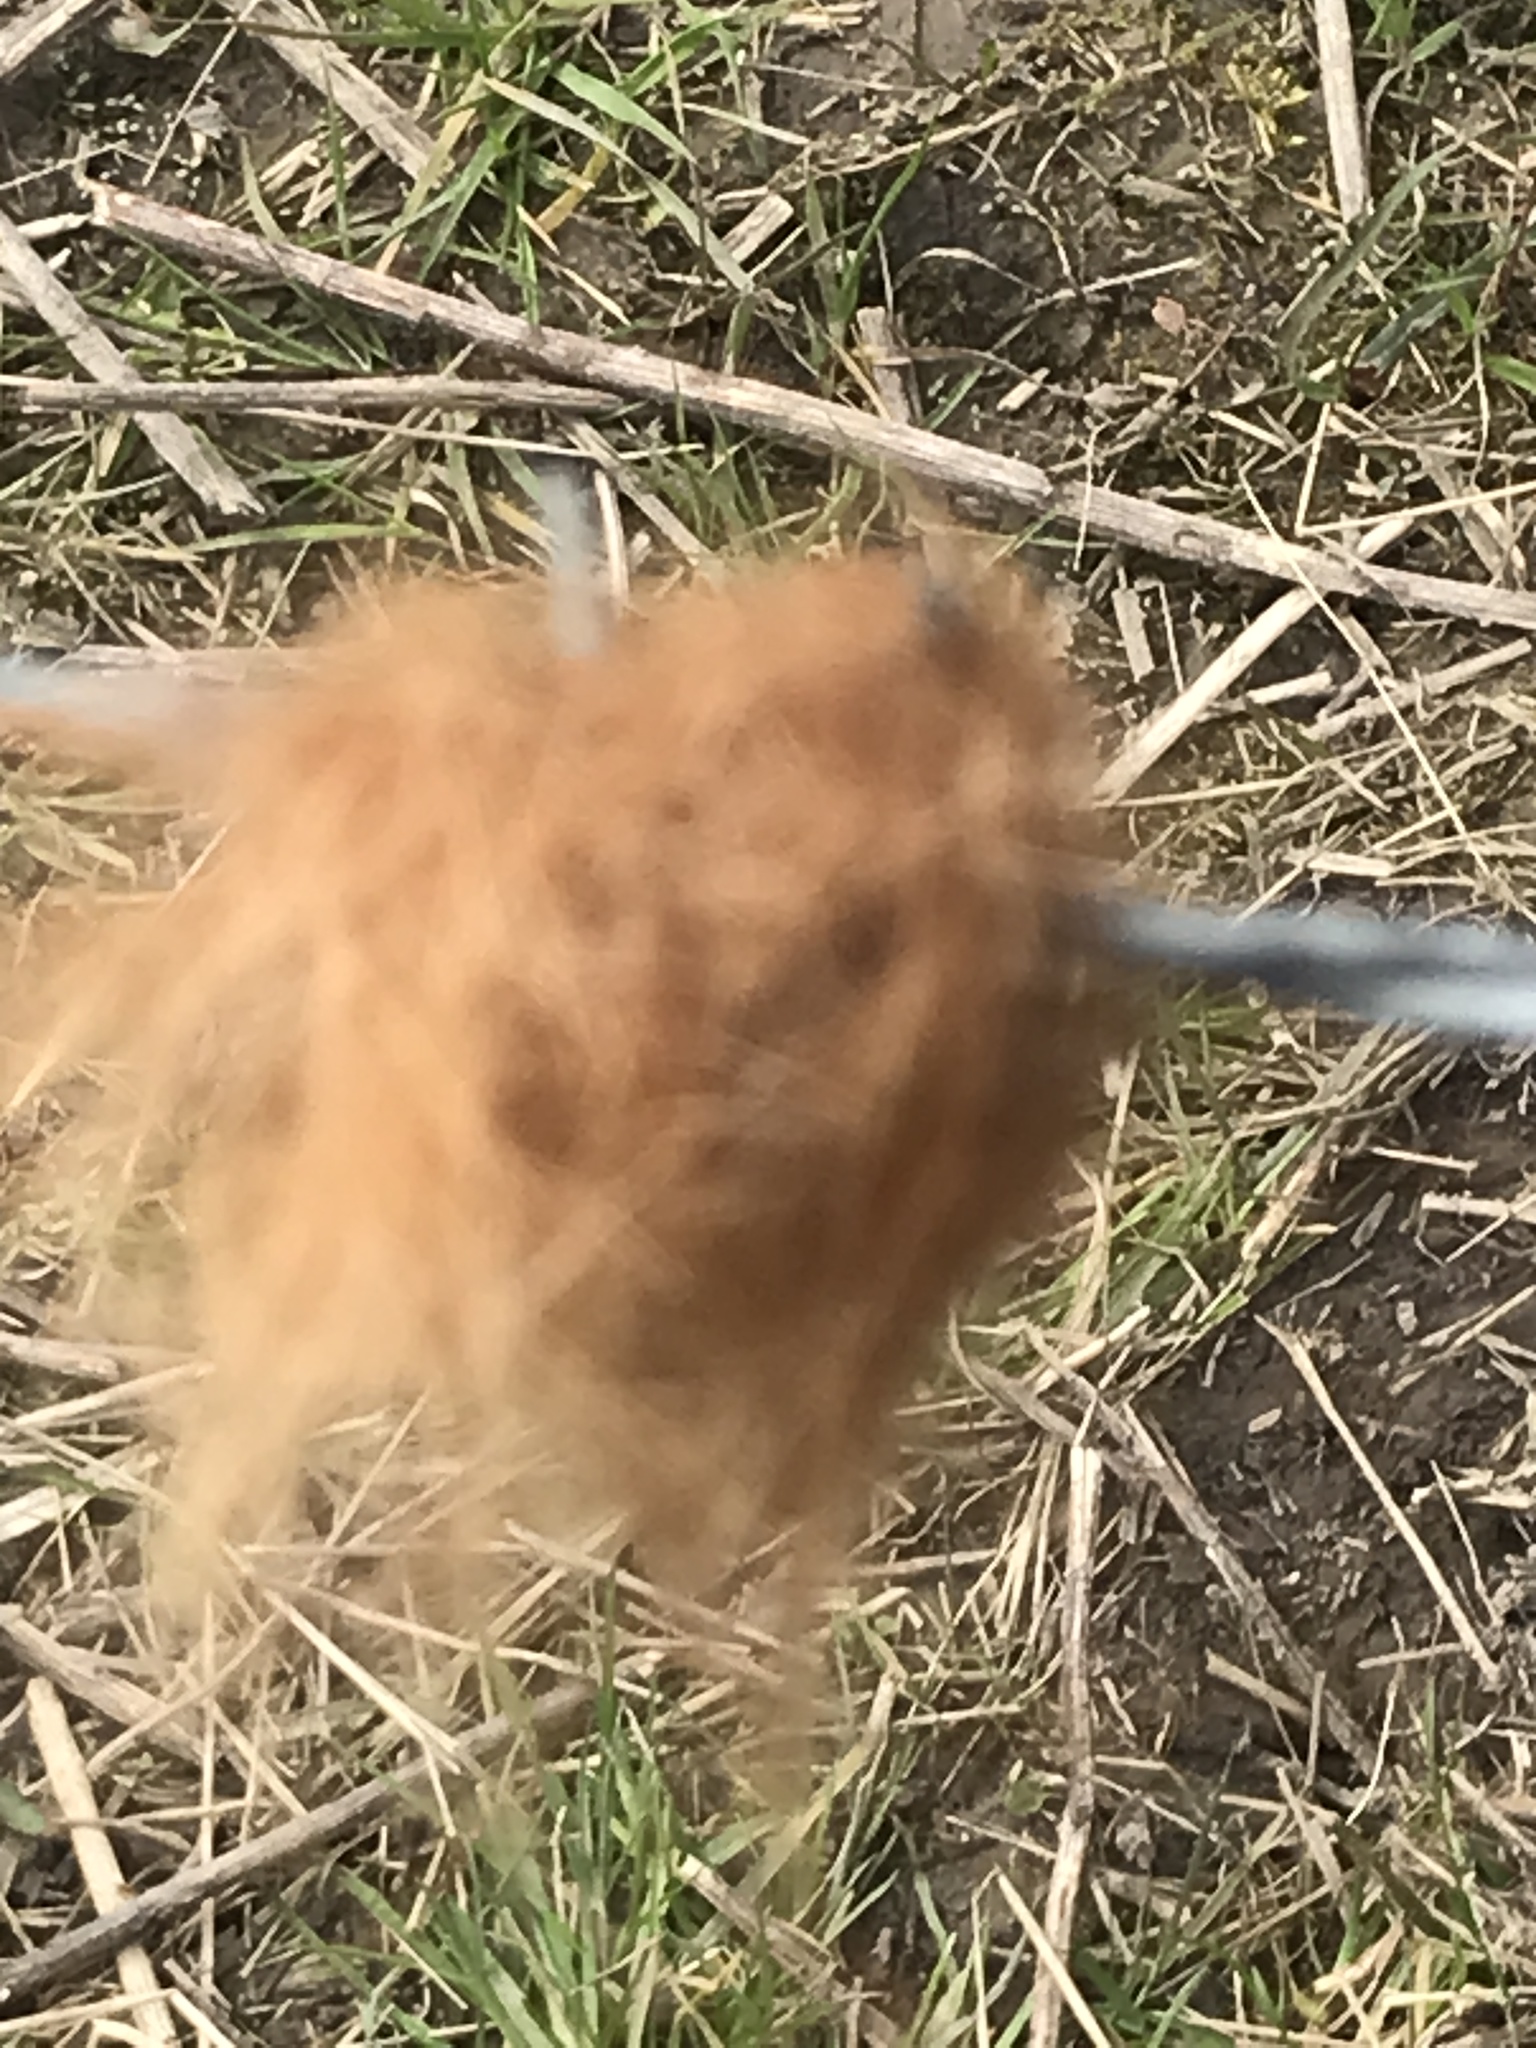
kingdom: Animalia
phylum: Arthropoda
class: Insecta
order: Hymenoptera
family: Cynipidae
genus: Diplolepis
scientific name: Diplolepis rosae
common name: Bedeguar gall
